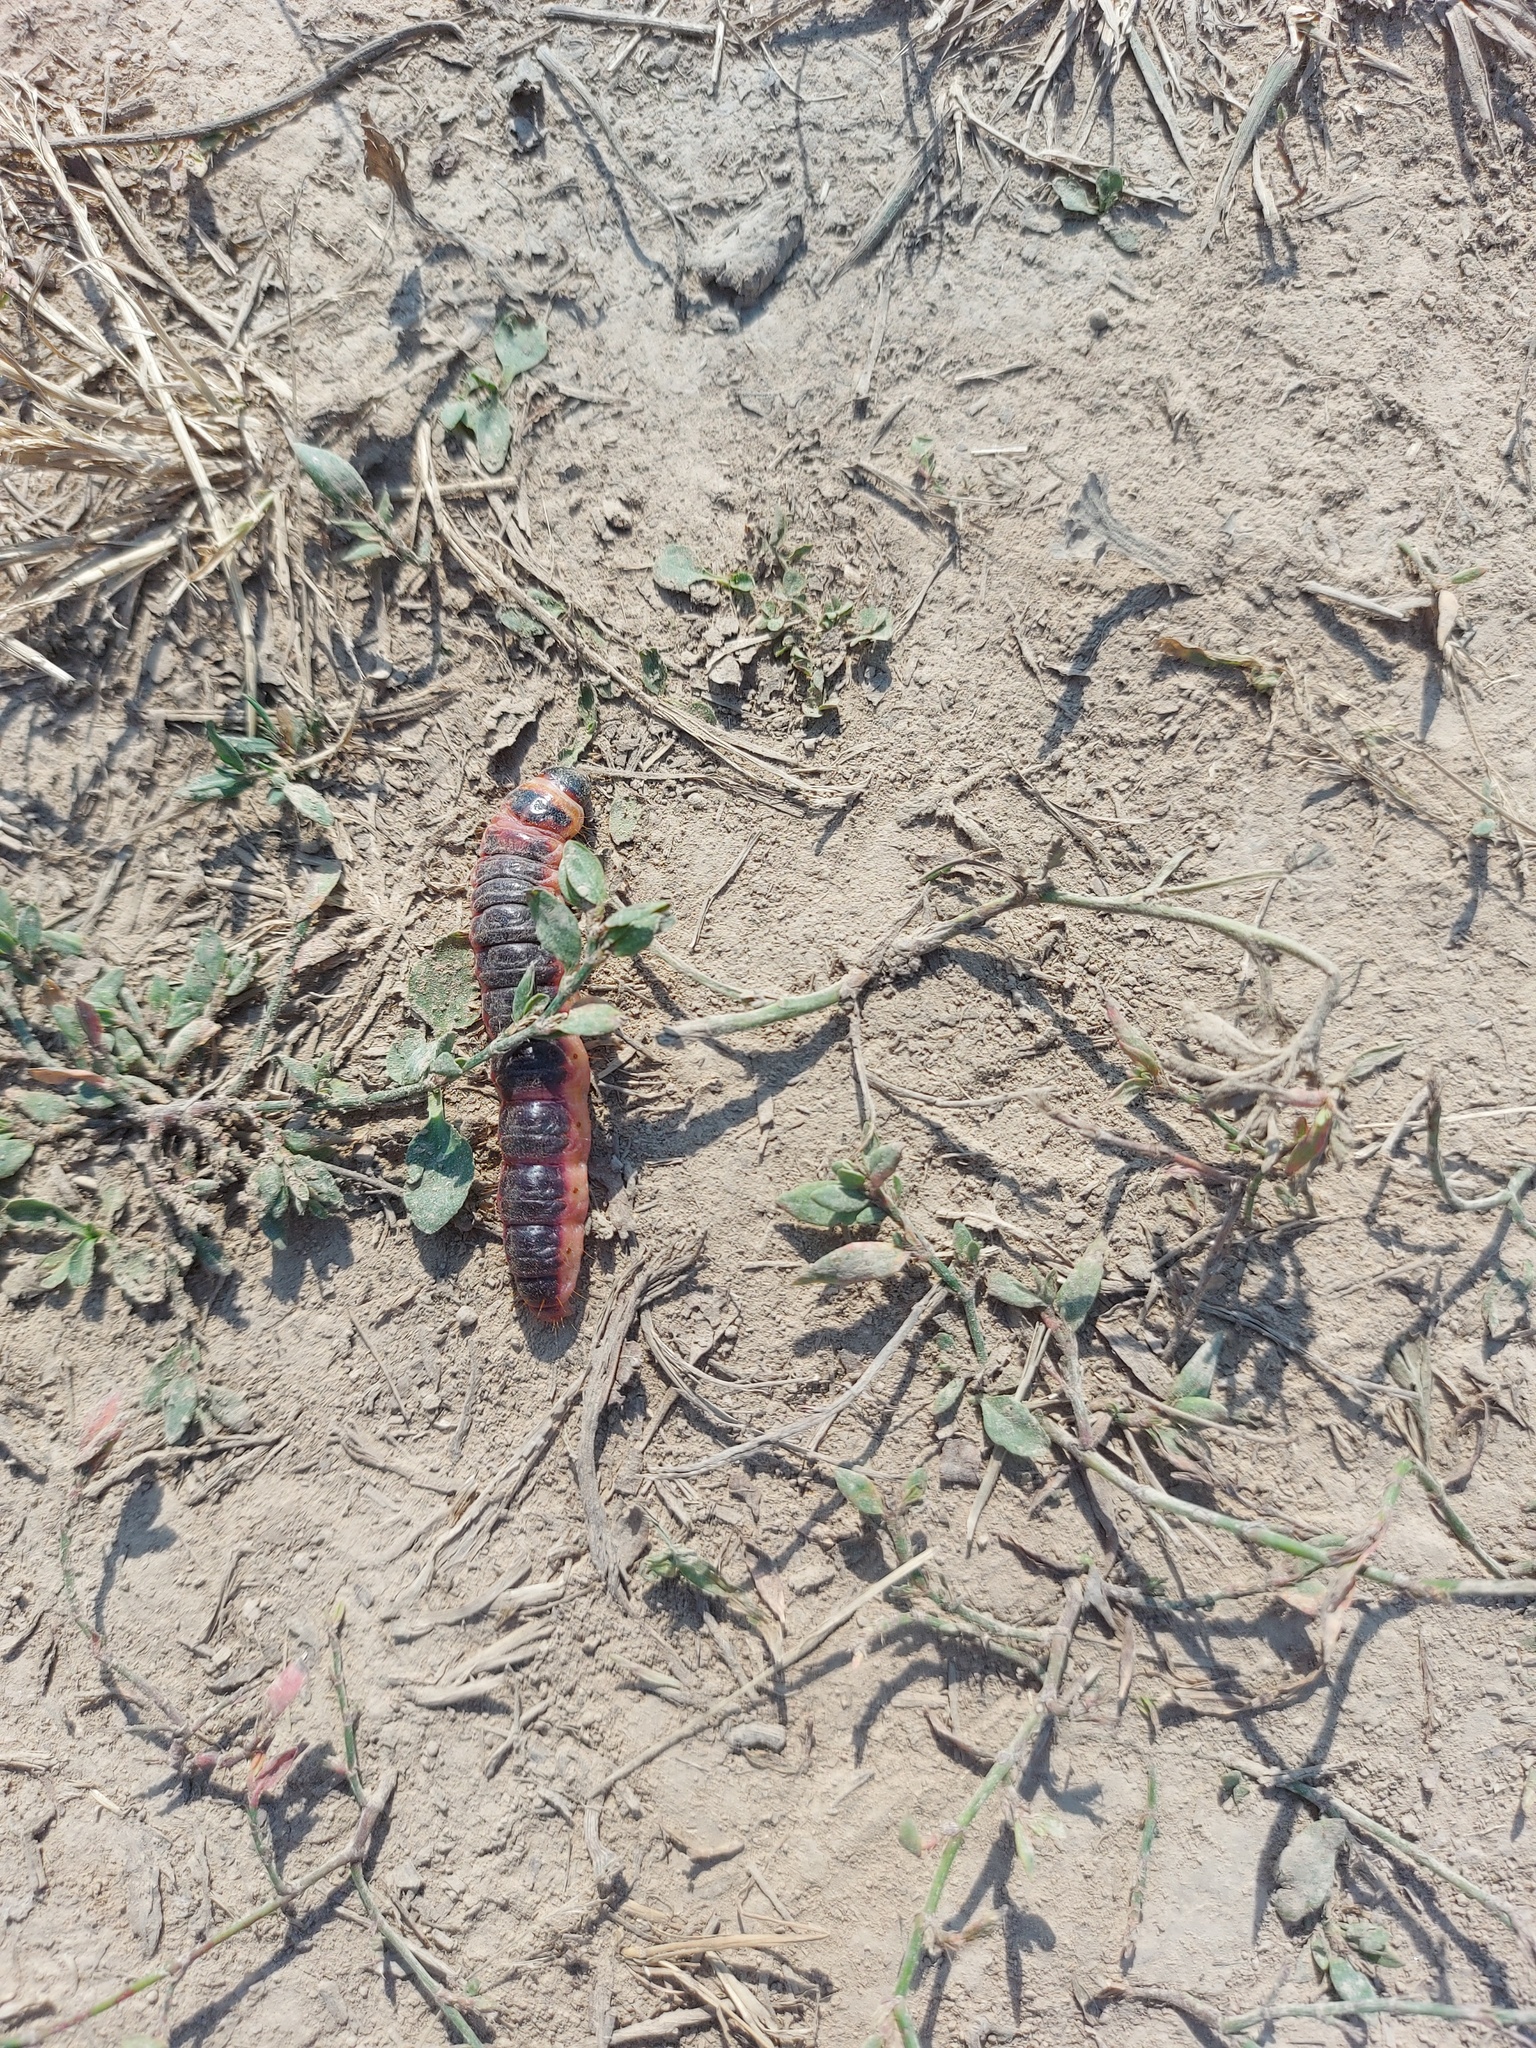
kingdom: Animalia
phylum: Arthropoda
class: Insecta
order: Lepidoptera
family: Cossidae
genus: Cossus
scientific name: Cossus cossus
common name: Goat moth
